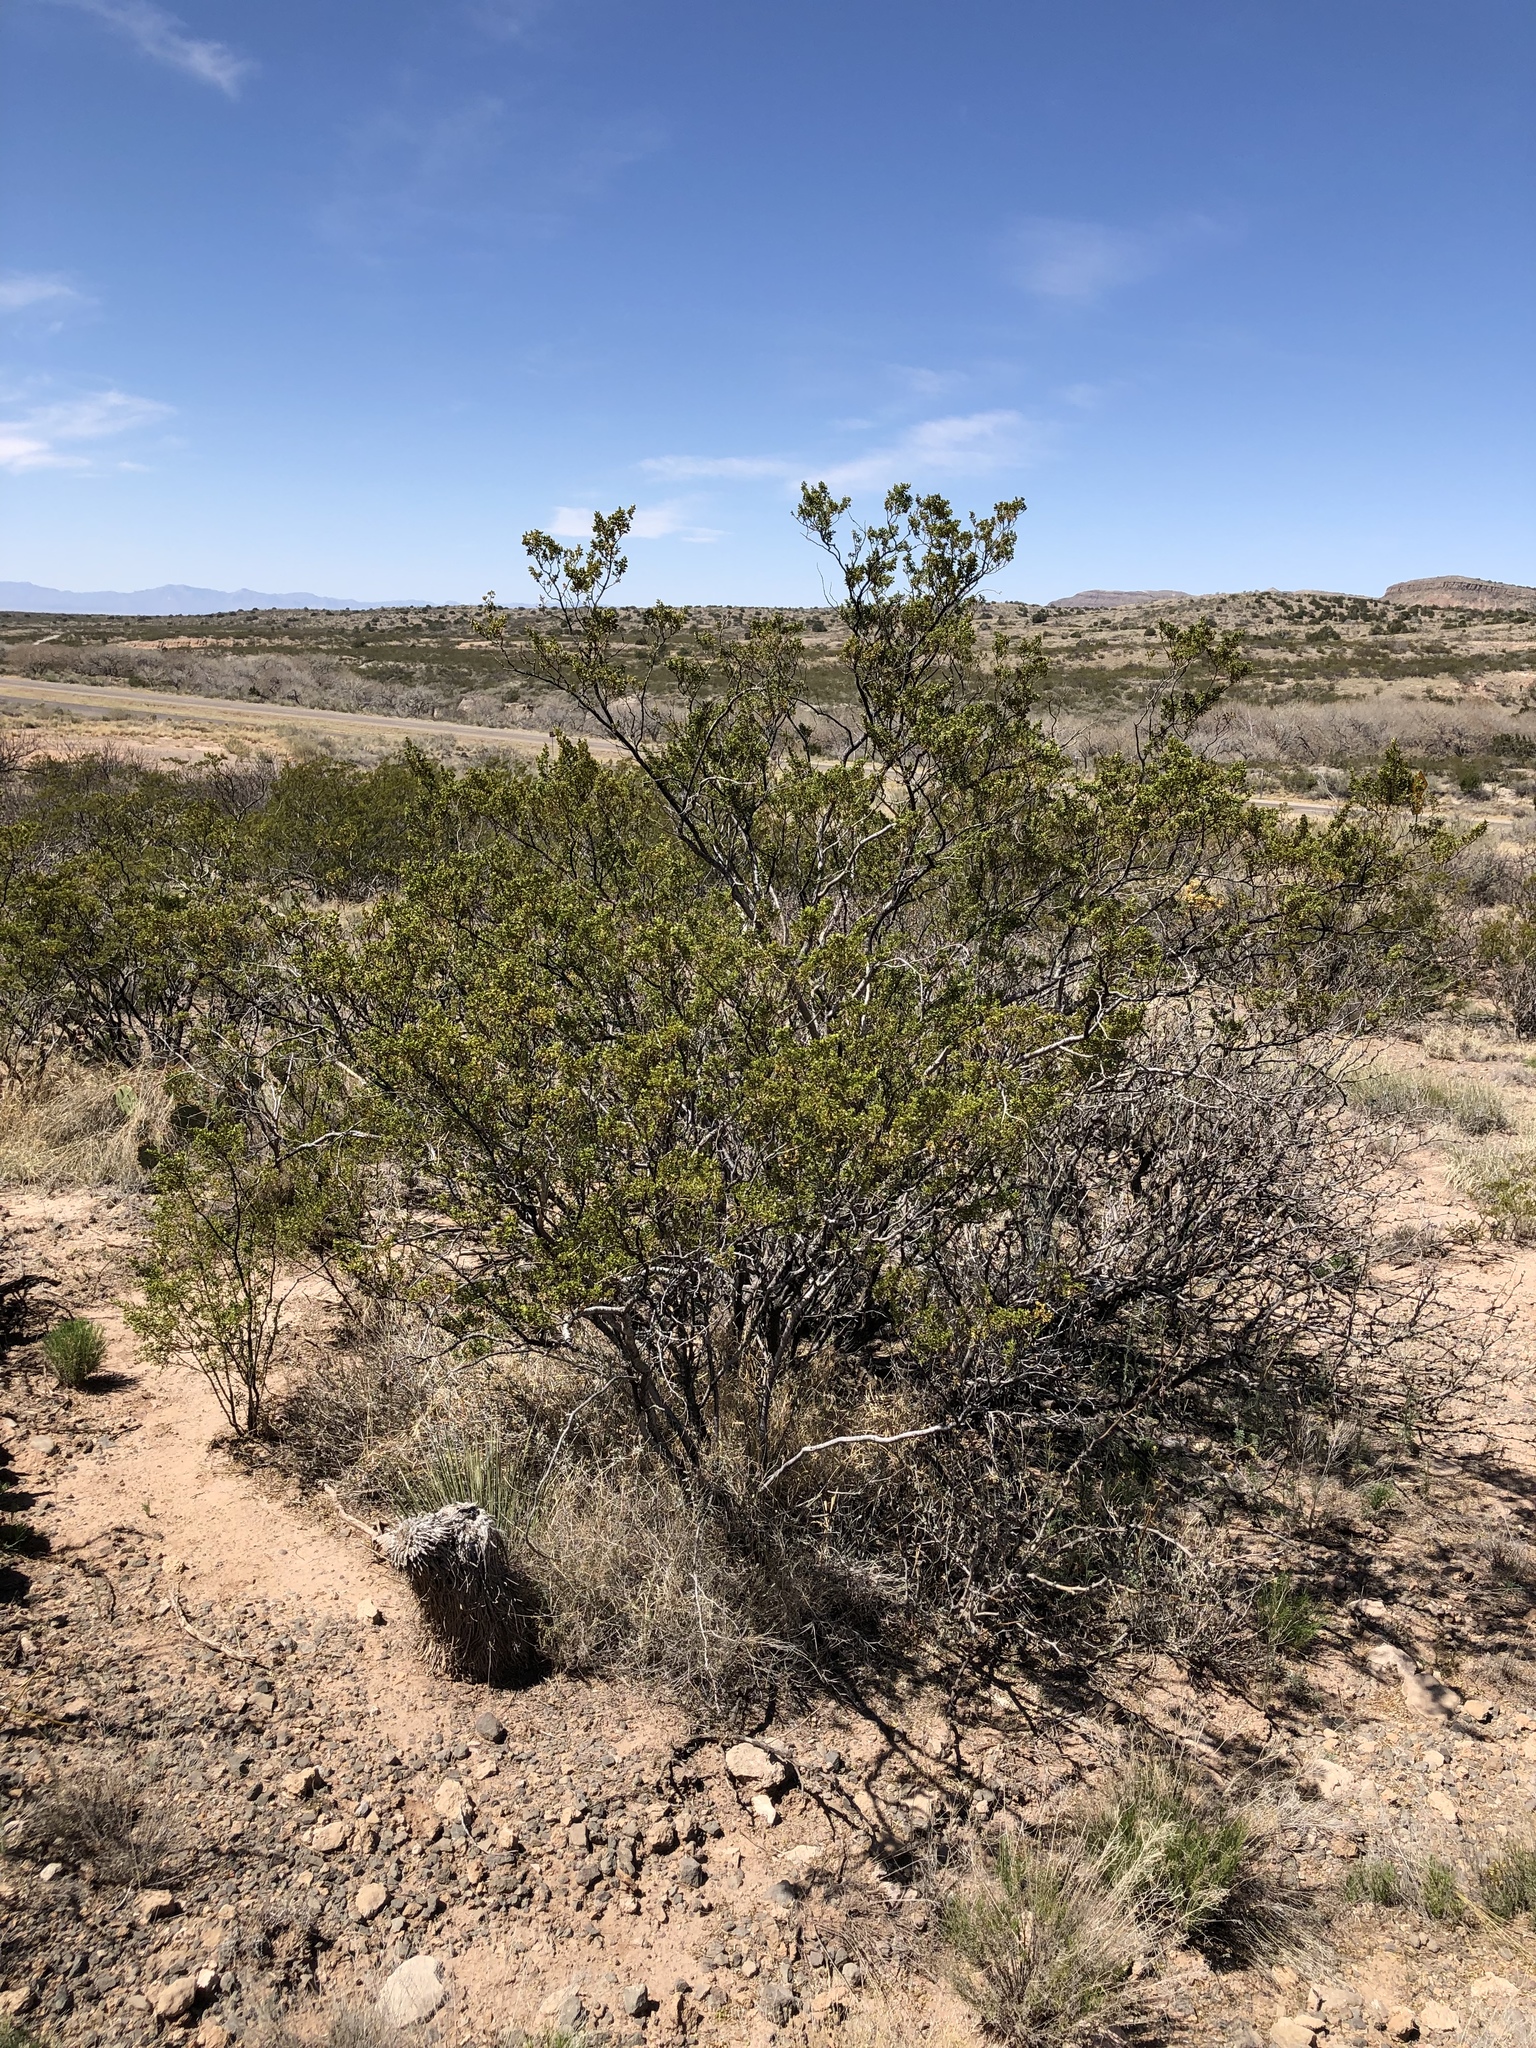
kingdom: Plantae
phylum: Tracheophyta
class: Magnoliopsida
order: Zygophyllales
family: Zygophyllaceae
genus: Larrea
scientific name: Larrea tridentata
